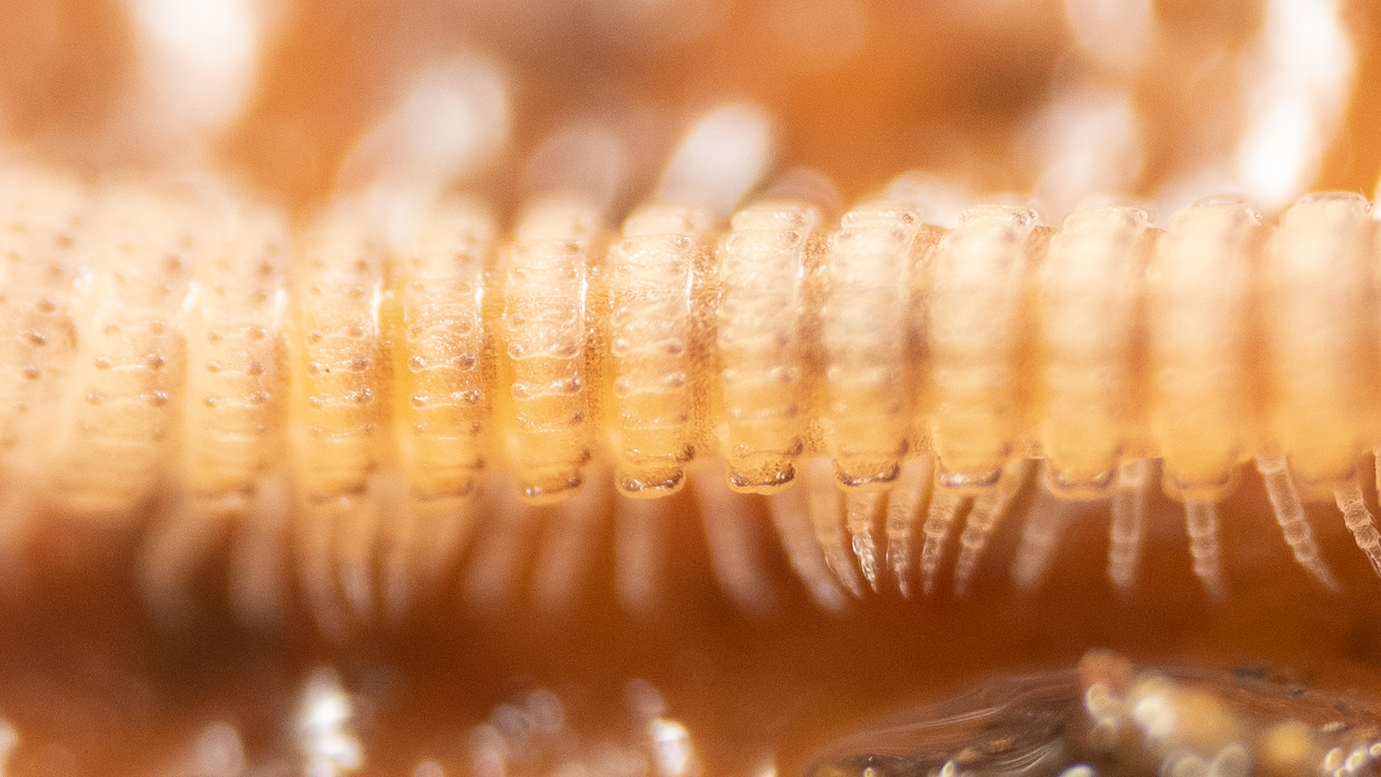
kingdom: Animalia
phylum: Arthropoda
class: Diplopoda
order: Chordeumatida
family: Striariidae
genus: Lamparia
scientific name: Lamparia bentonensis
